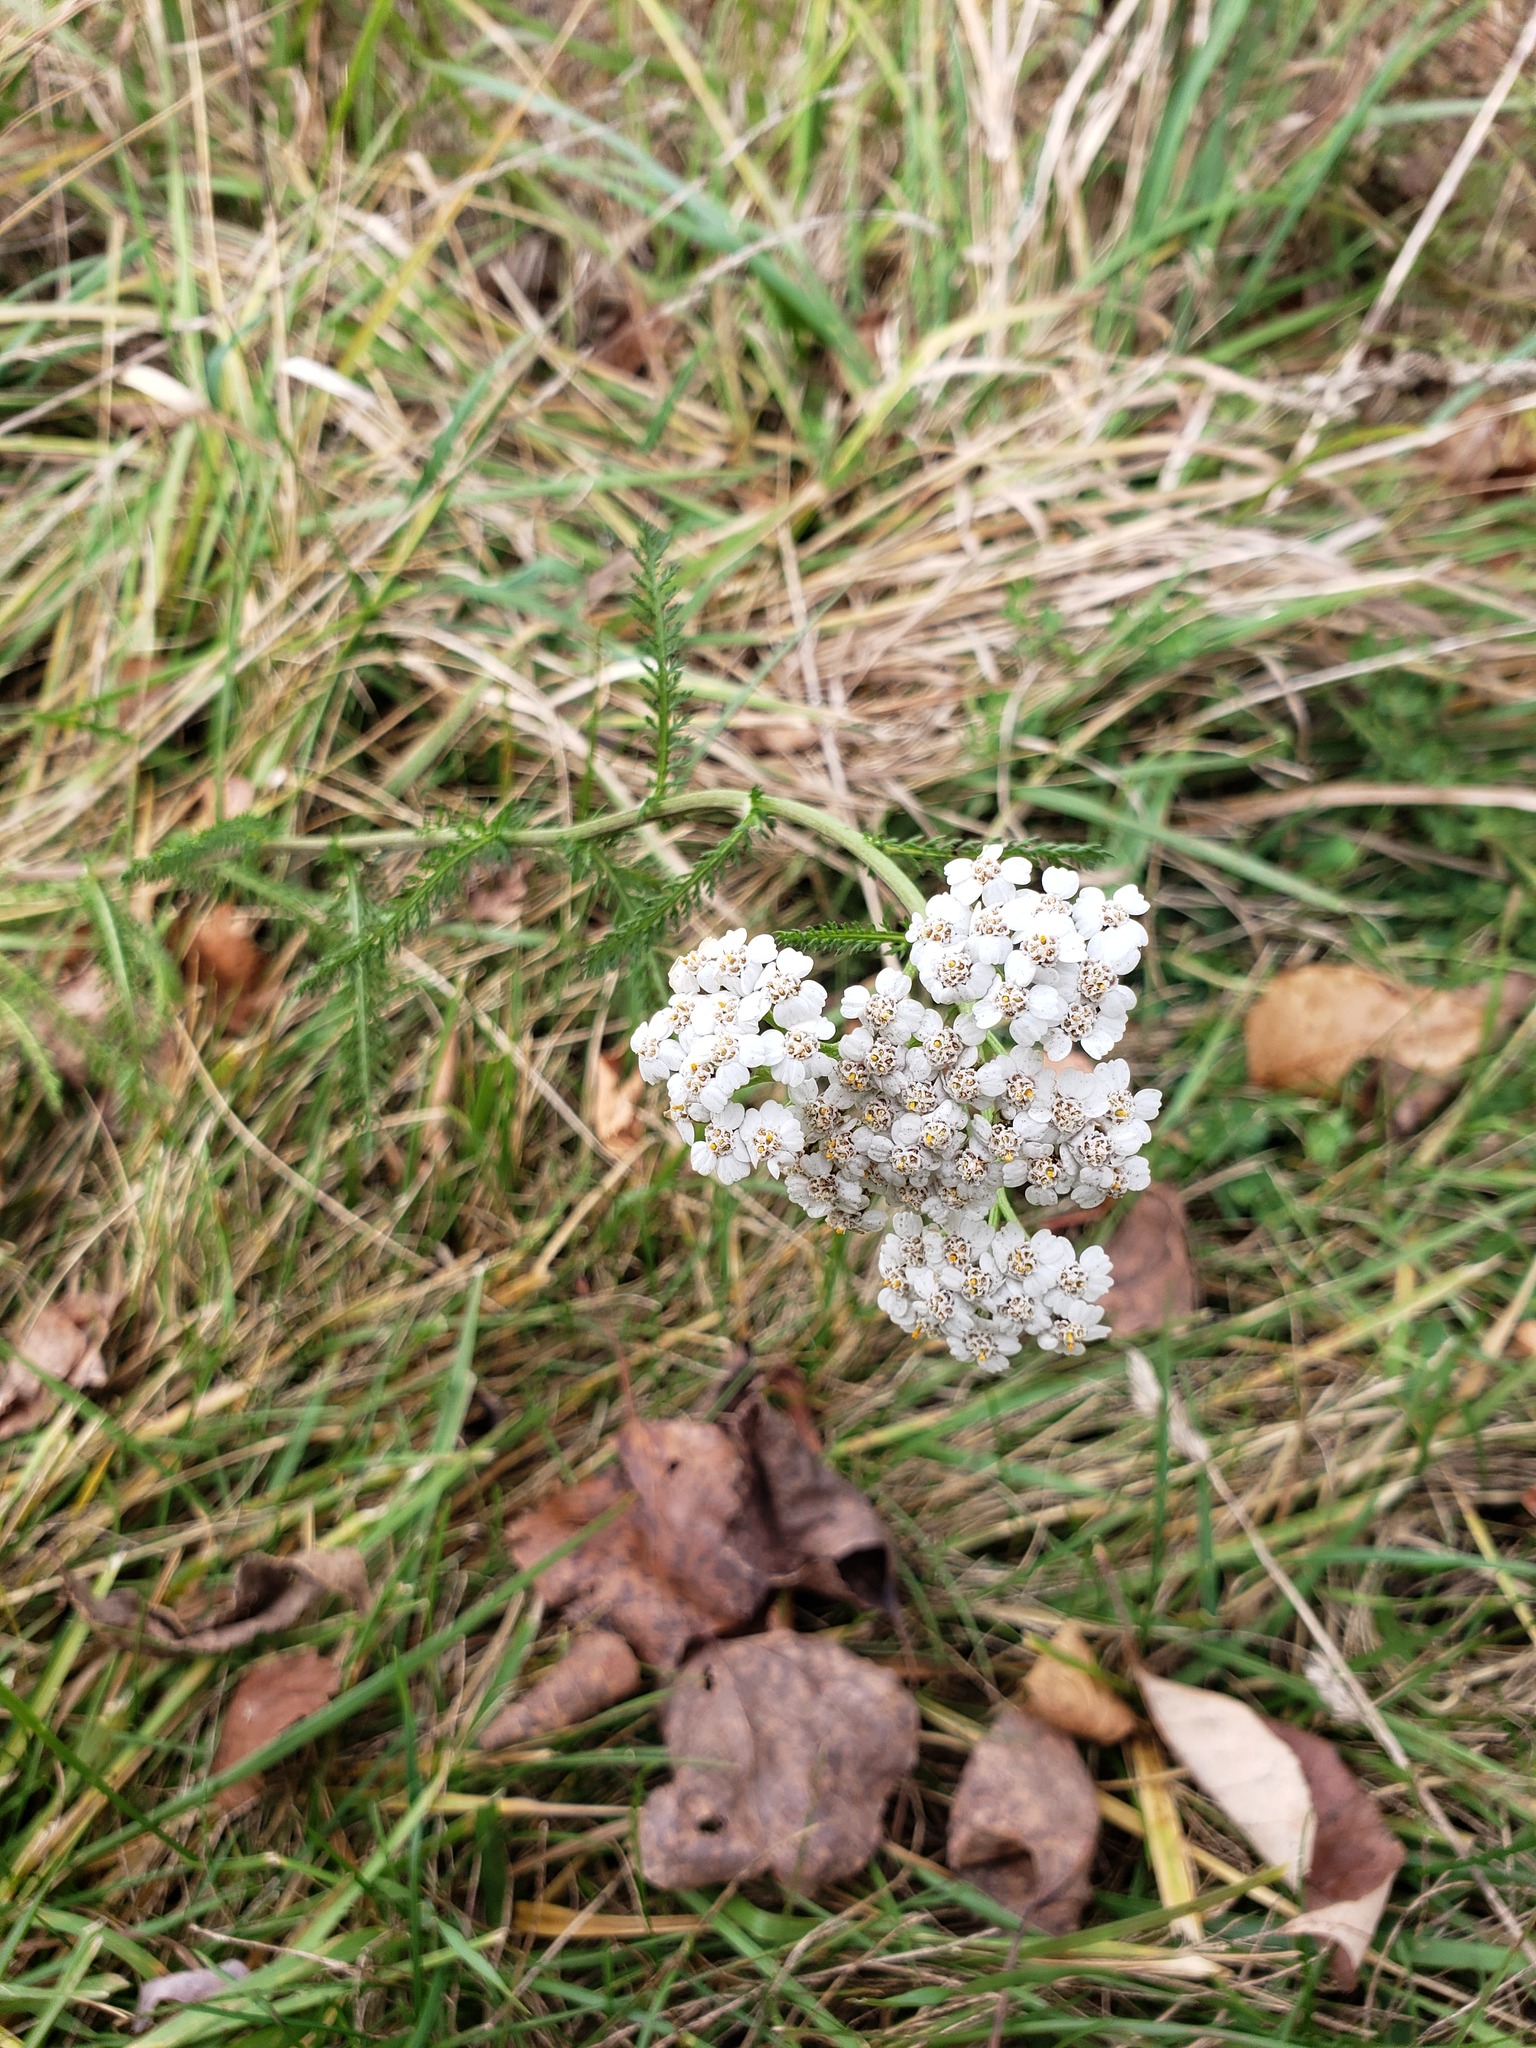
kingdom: Plantae
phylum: Tracheophyta
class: Magnoliopsida
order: Asterales
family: Asteraceae
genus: Achillea
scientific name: Achillea millefolium
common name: Yarrow
